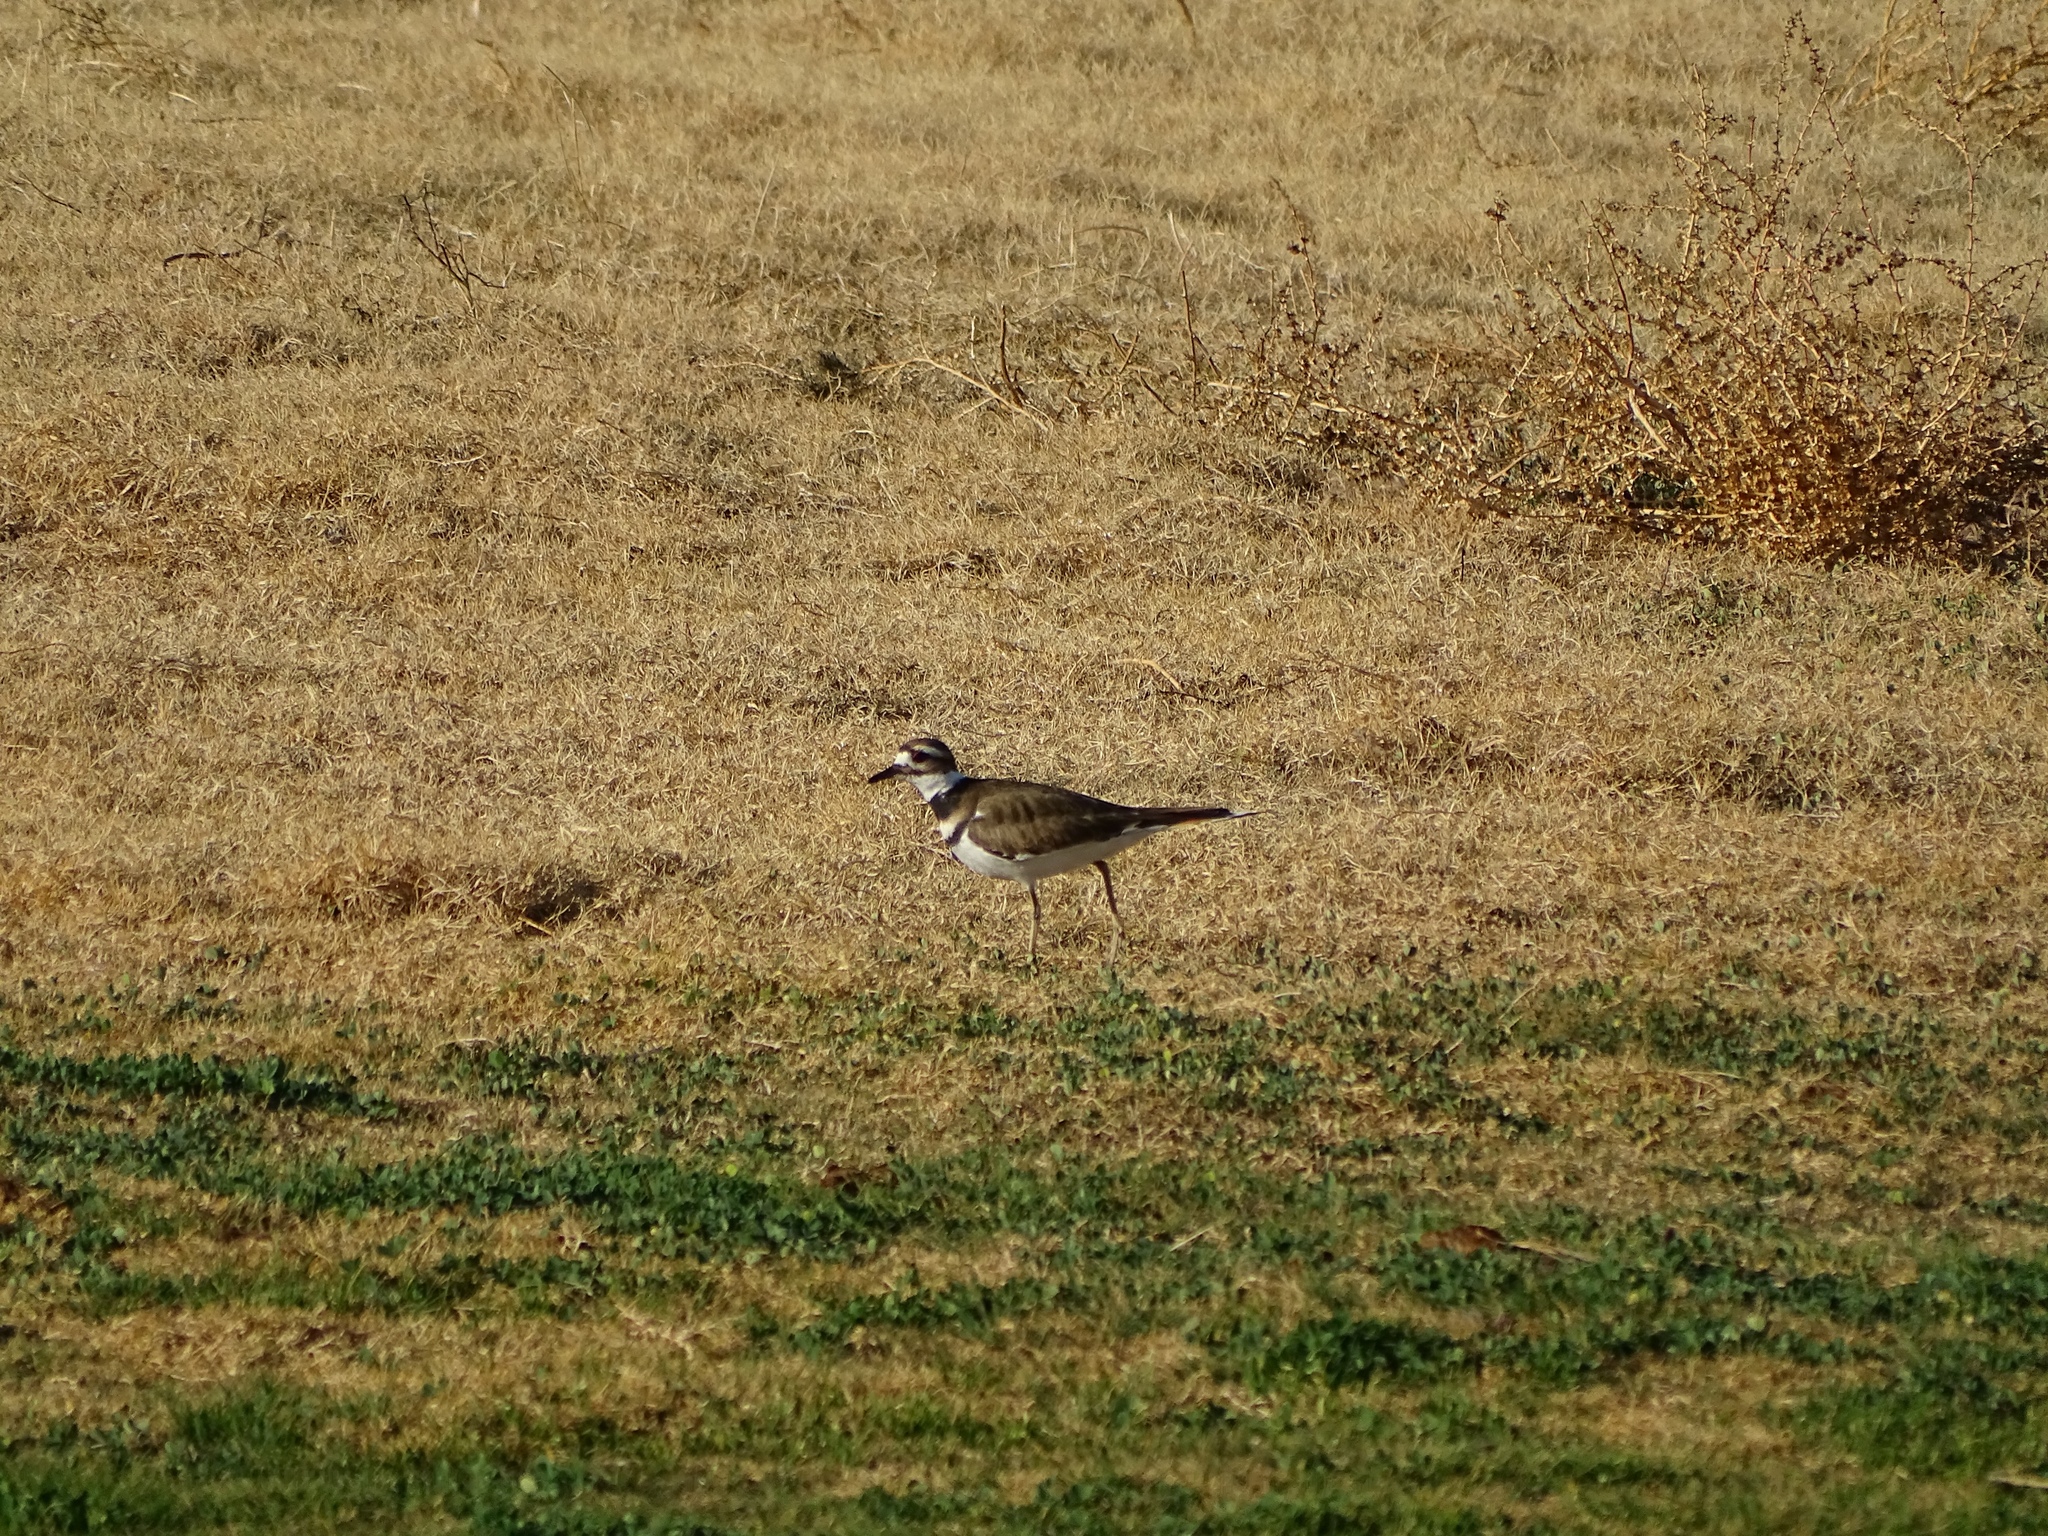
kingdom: Animalia
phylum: Chordata
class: Aves
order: Charadriiformes
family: Charadriidae
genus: Charadrius
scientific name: Charadrius vociferus
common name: Killdeer
